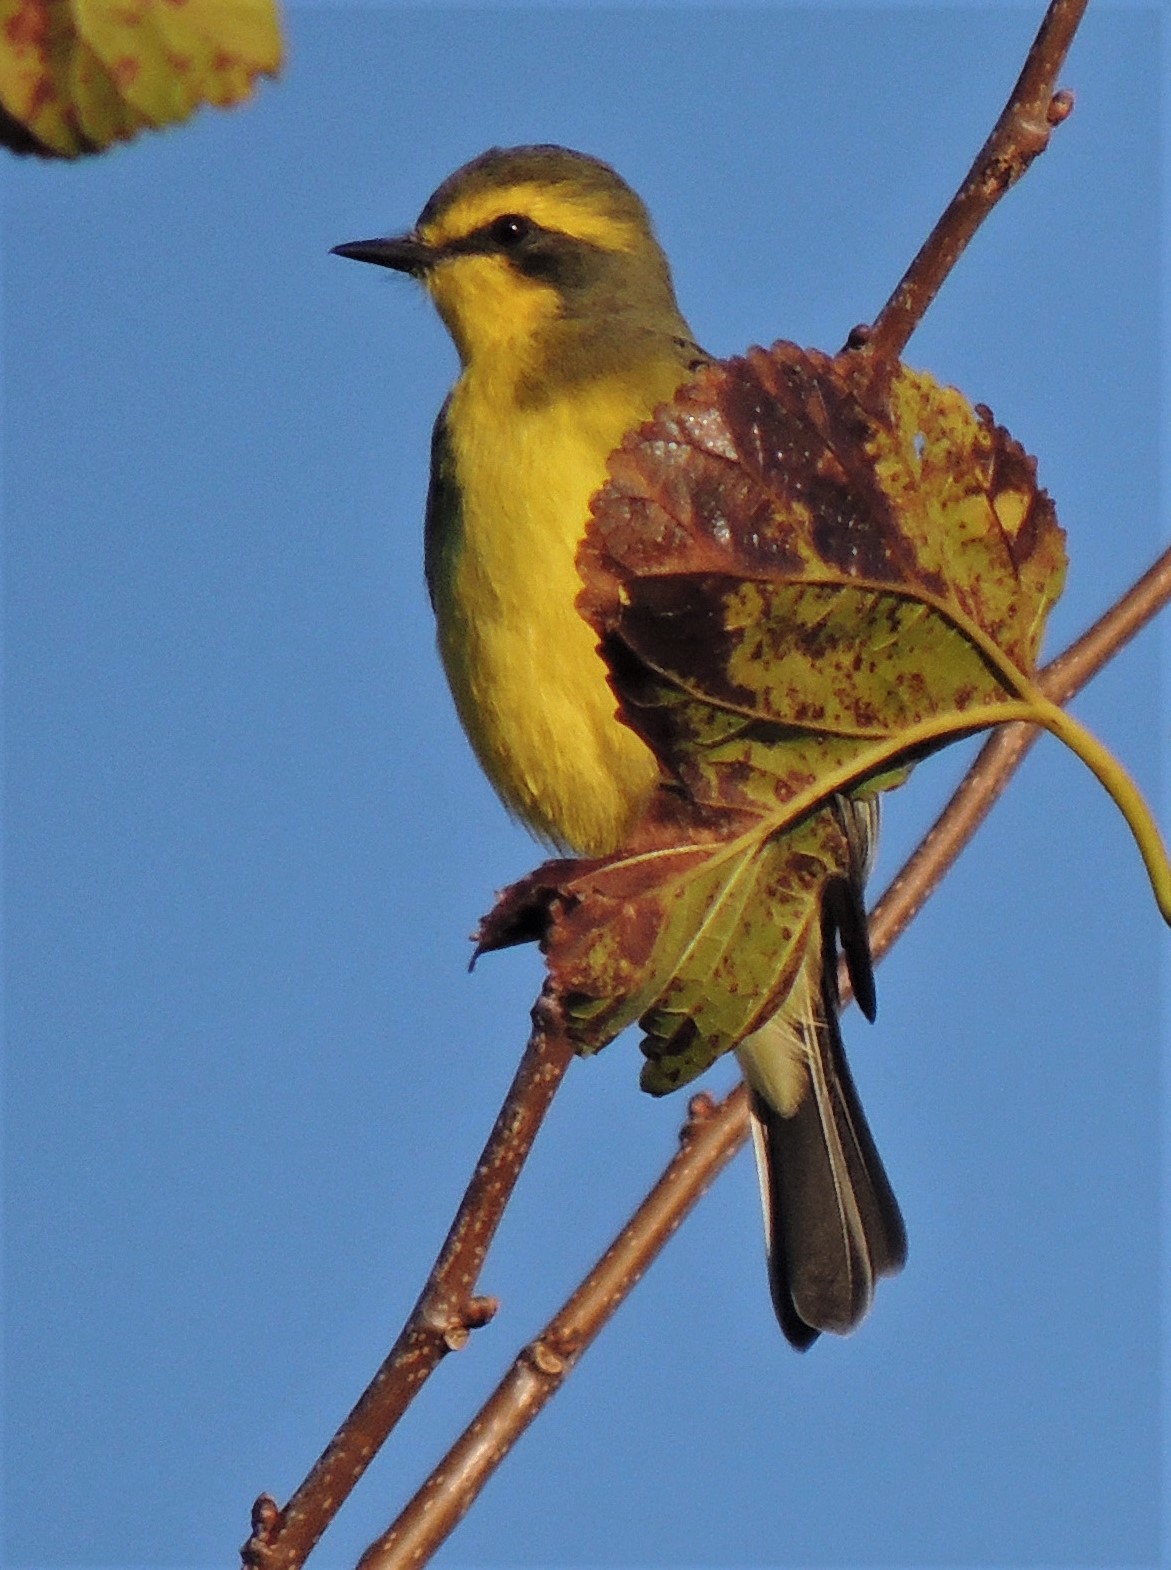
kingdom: Animalia
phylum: Chordata
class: Aves
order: Passeriformes
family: Tyrannidae
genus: Satrapa
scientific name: Satrapa icterophrys
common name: Yellow-browed tyrant
